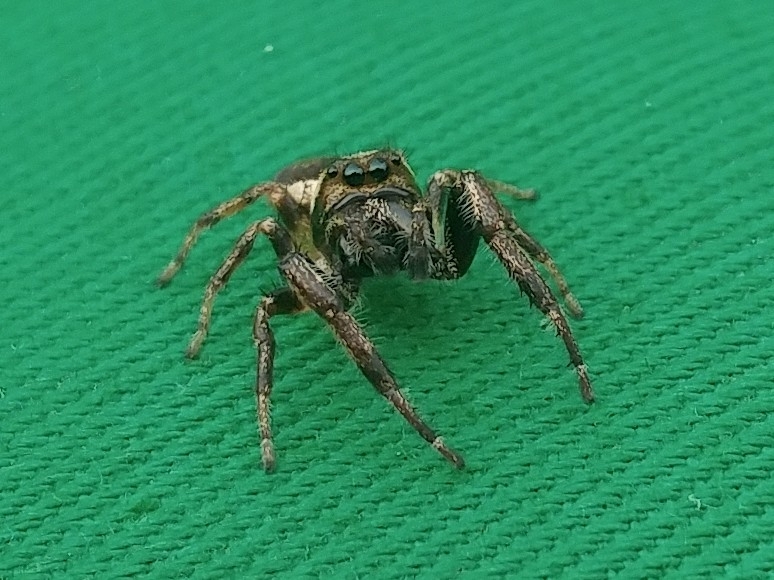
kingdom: Animalia
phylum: Arthropoda
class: Arachnida
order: Araneae
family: Salticidae
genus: Eris
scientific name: Eris militaris
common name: Bronze jumper
